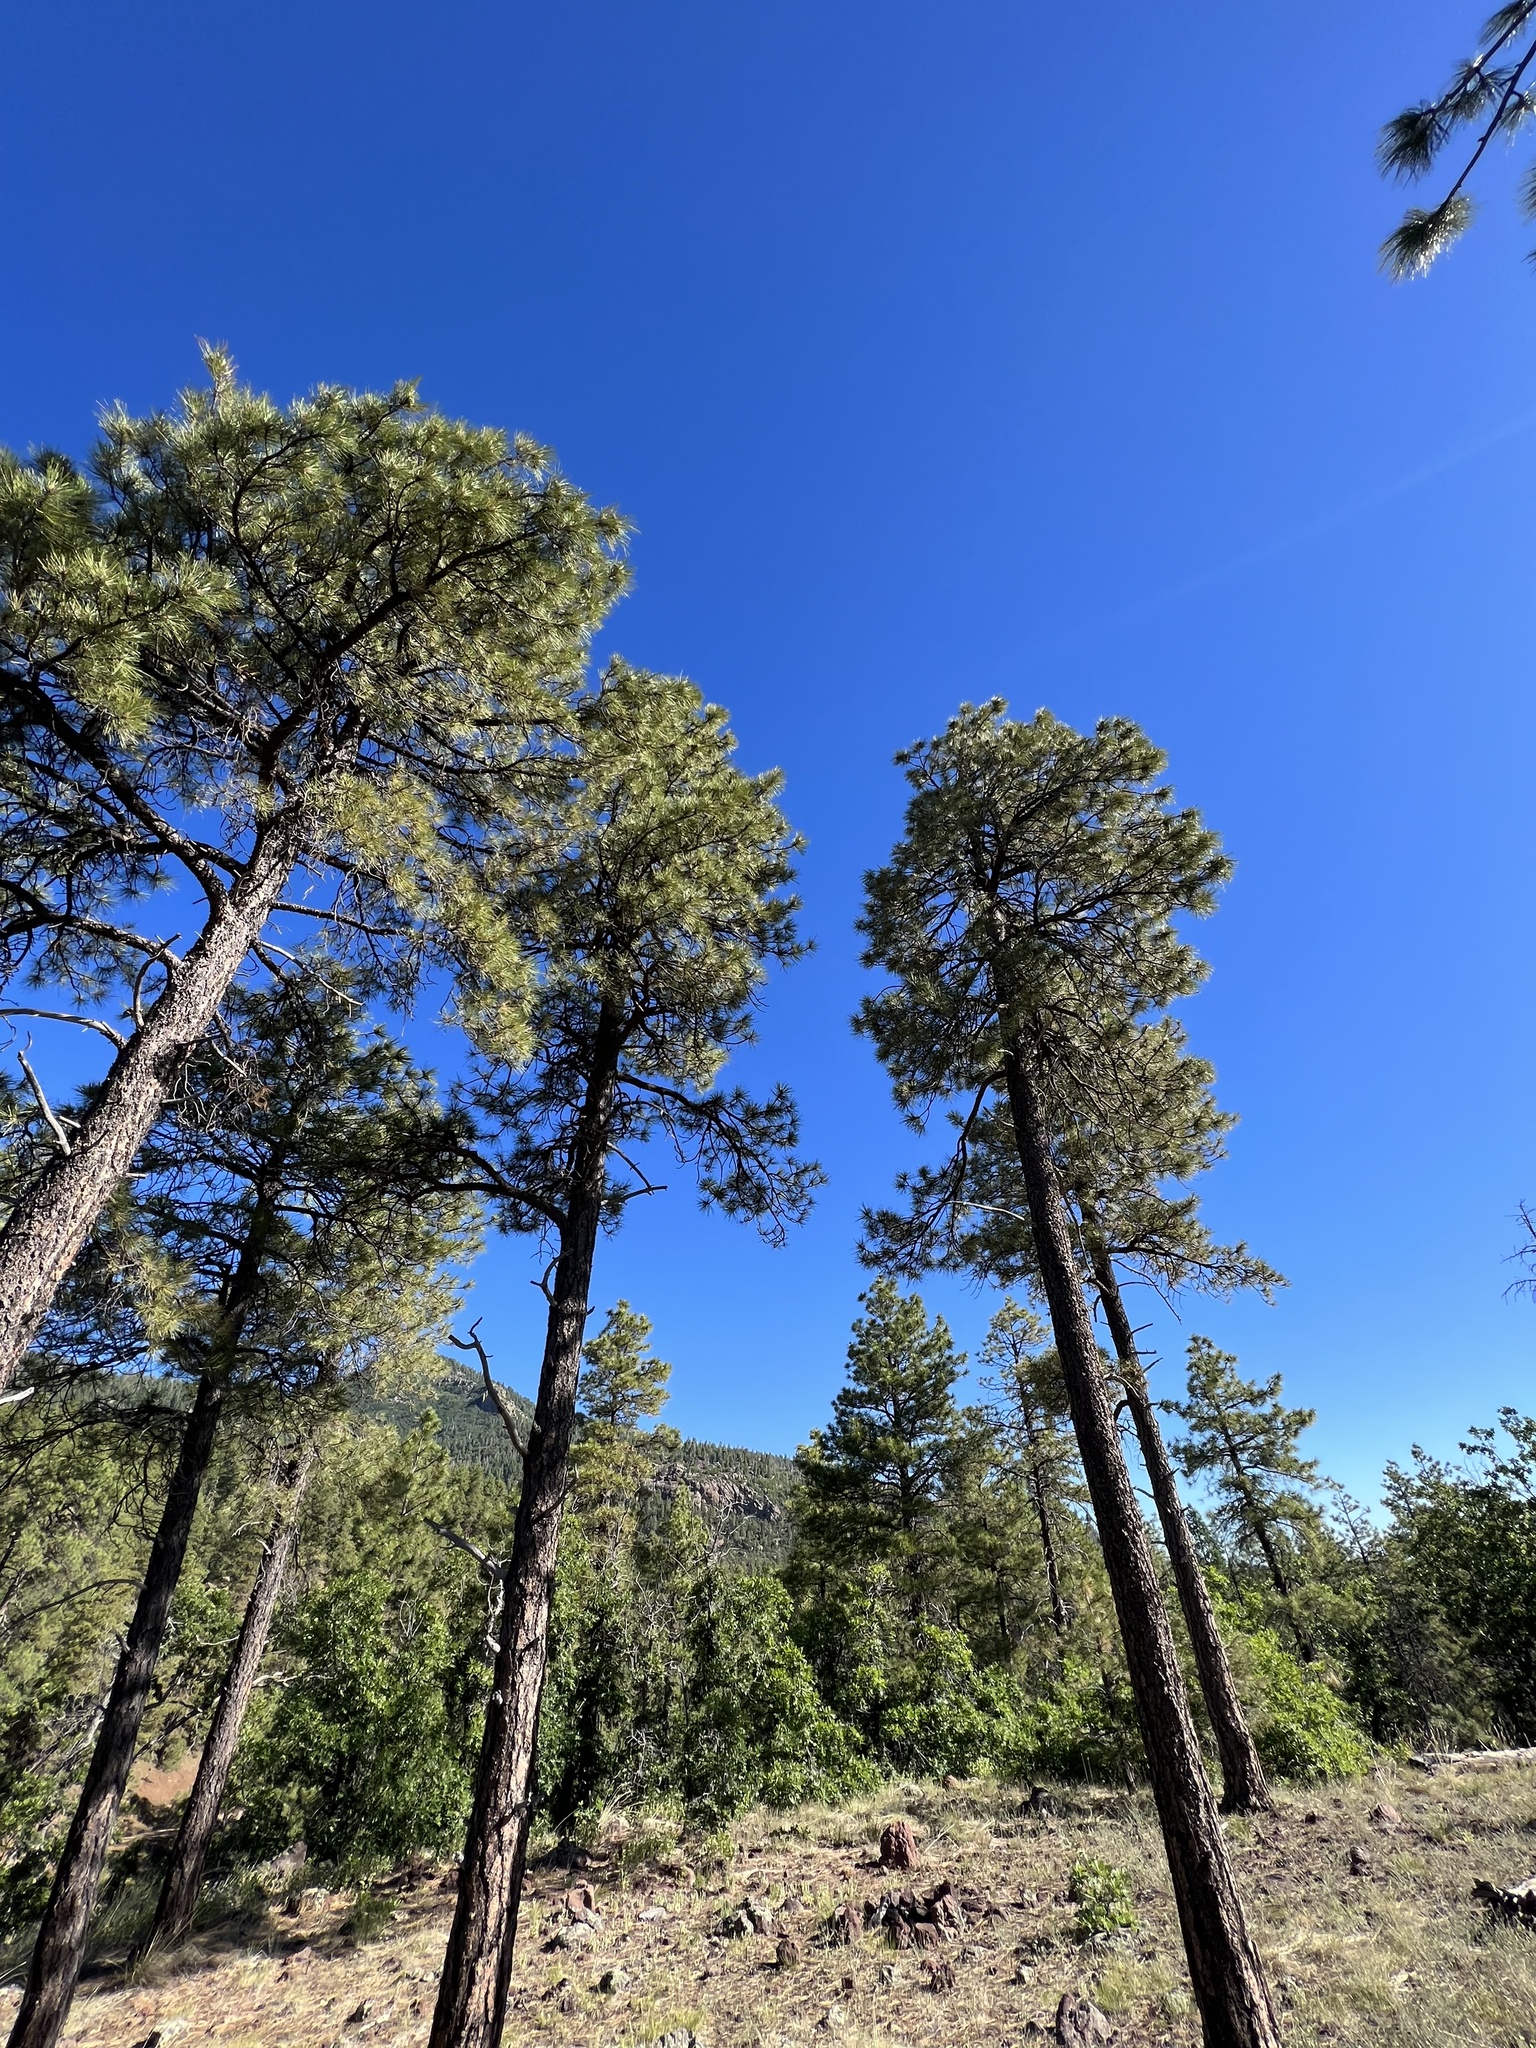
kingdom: Plantae
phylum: Tracheophyta
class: Pinopsida
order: Pinales
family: Pinaceae
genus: Pinus
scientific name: Pinus ponderosa
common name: Western yellow-pine
